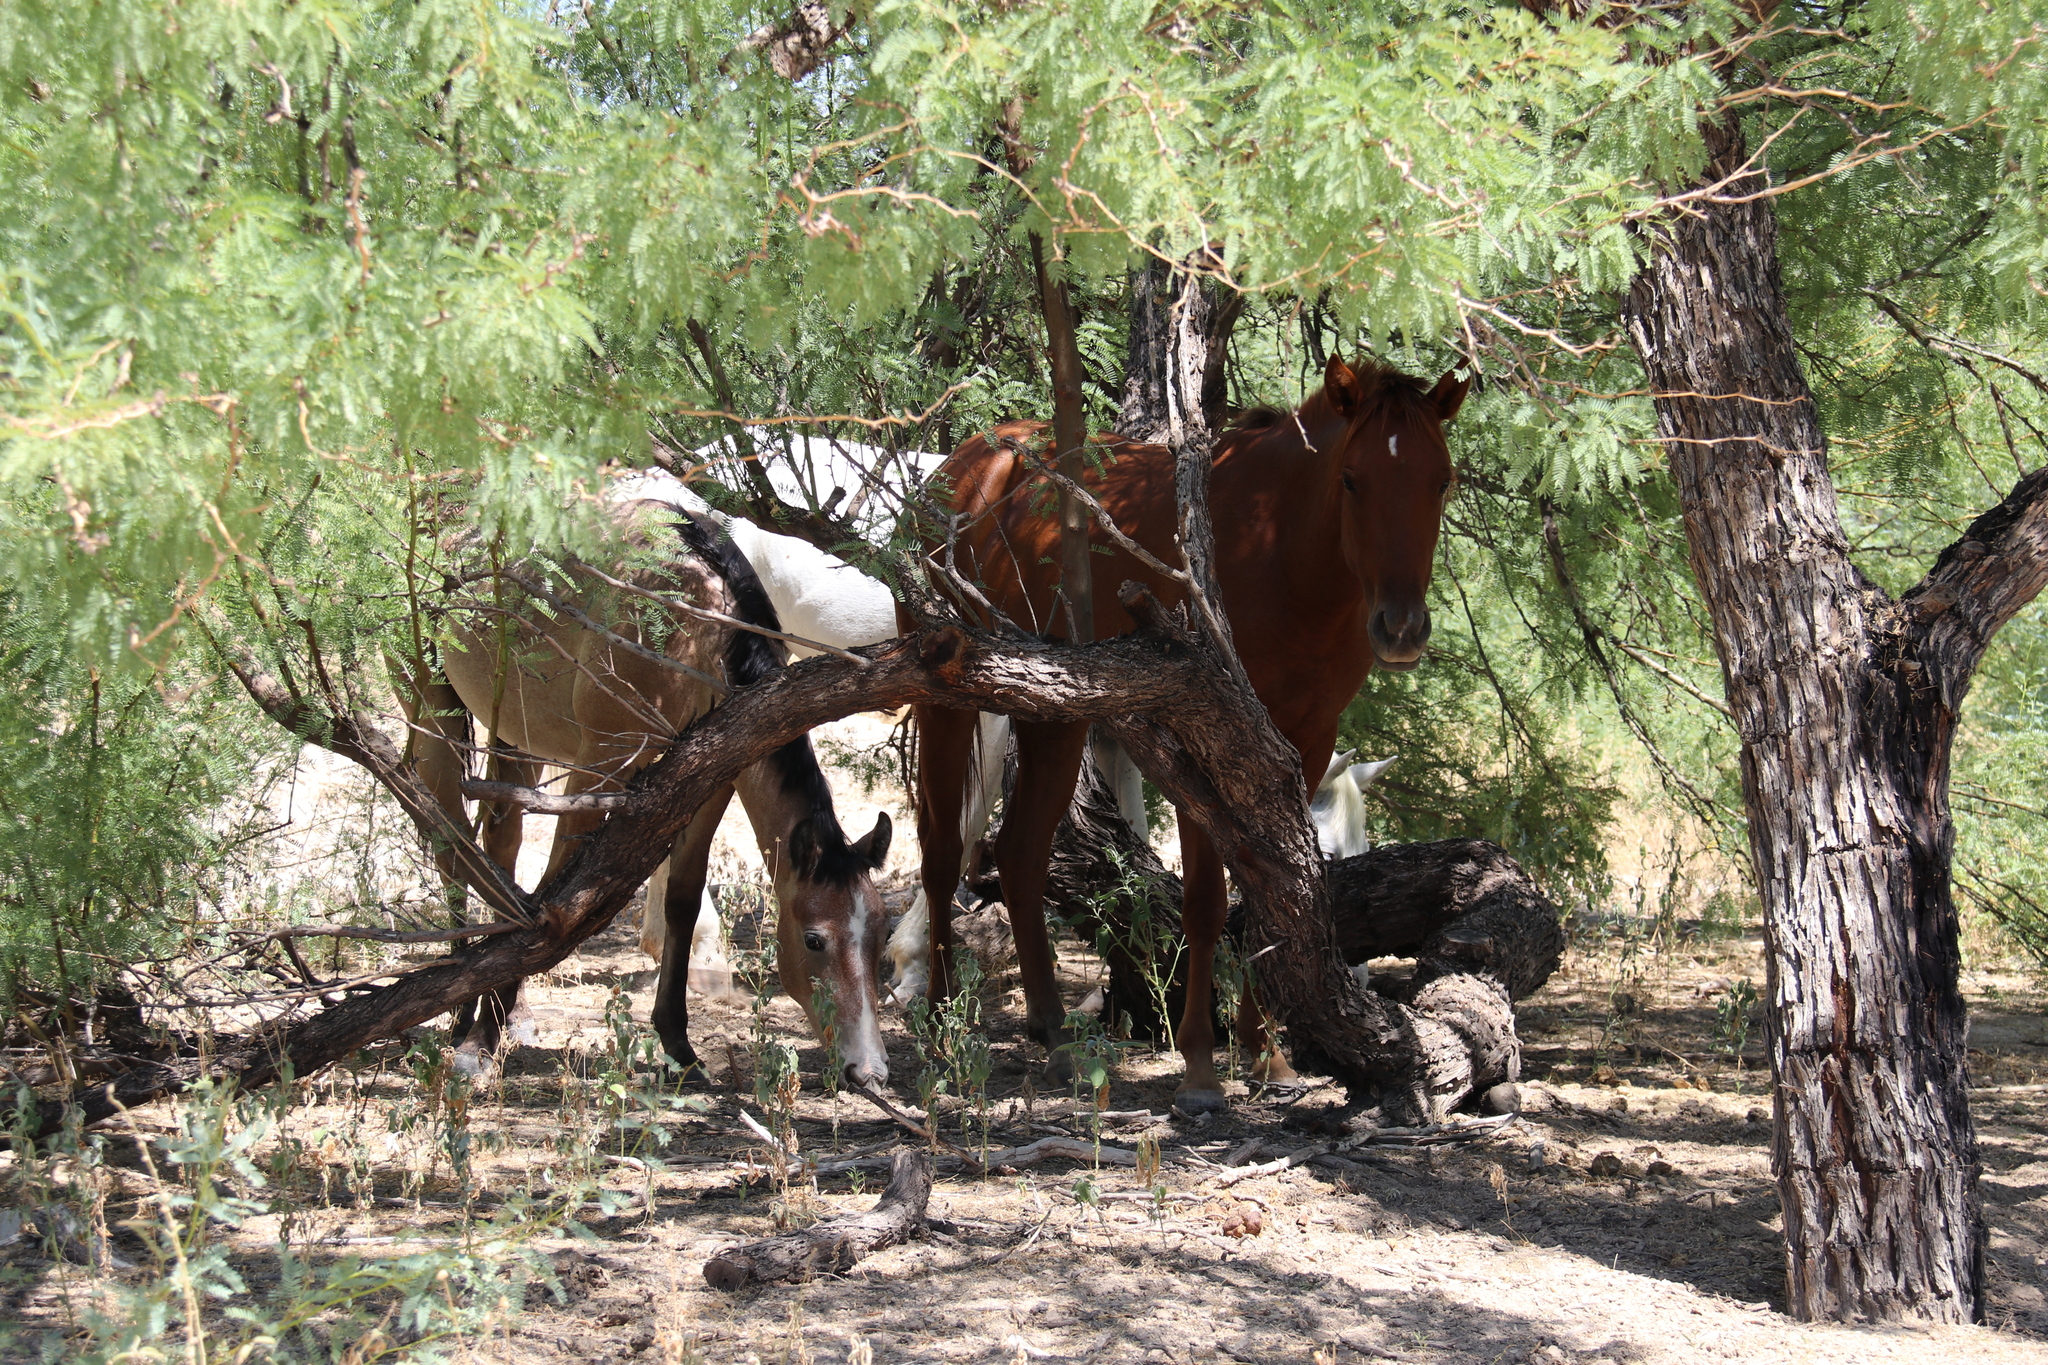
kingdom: Animalia
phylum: Chordata
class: Mammalia
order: Perissodactyla
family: Equidae
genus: Equus
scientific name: Equus caballus
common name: Horse
